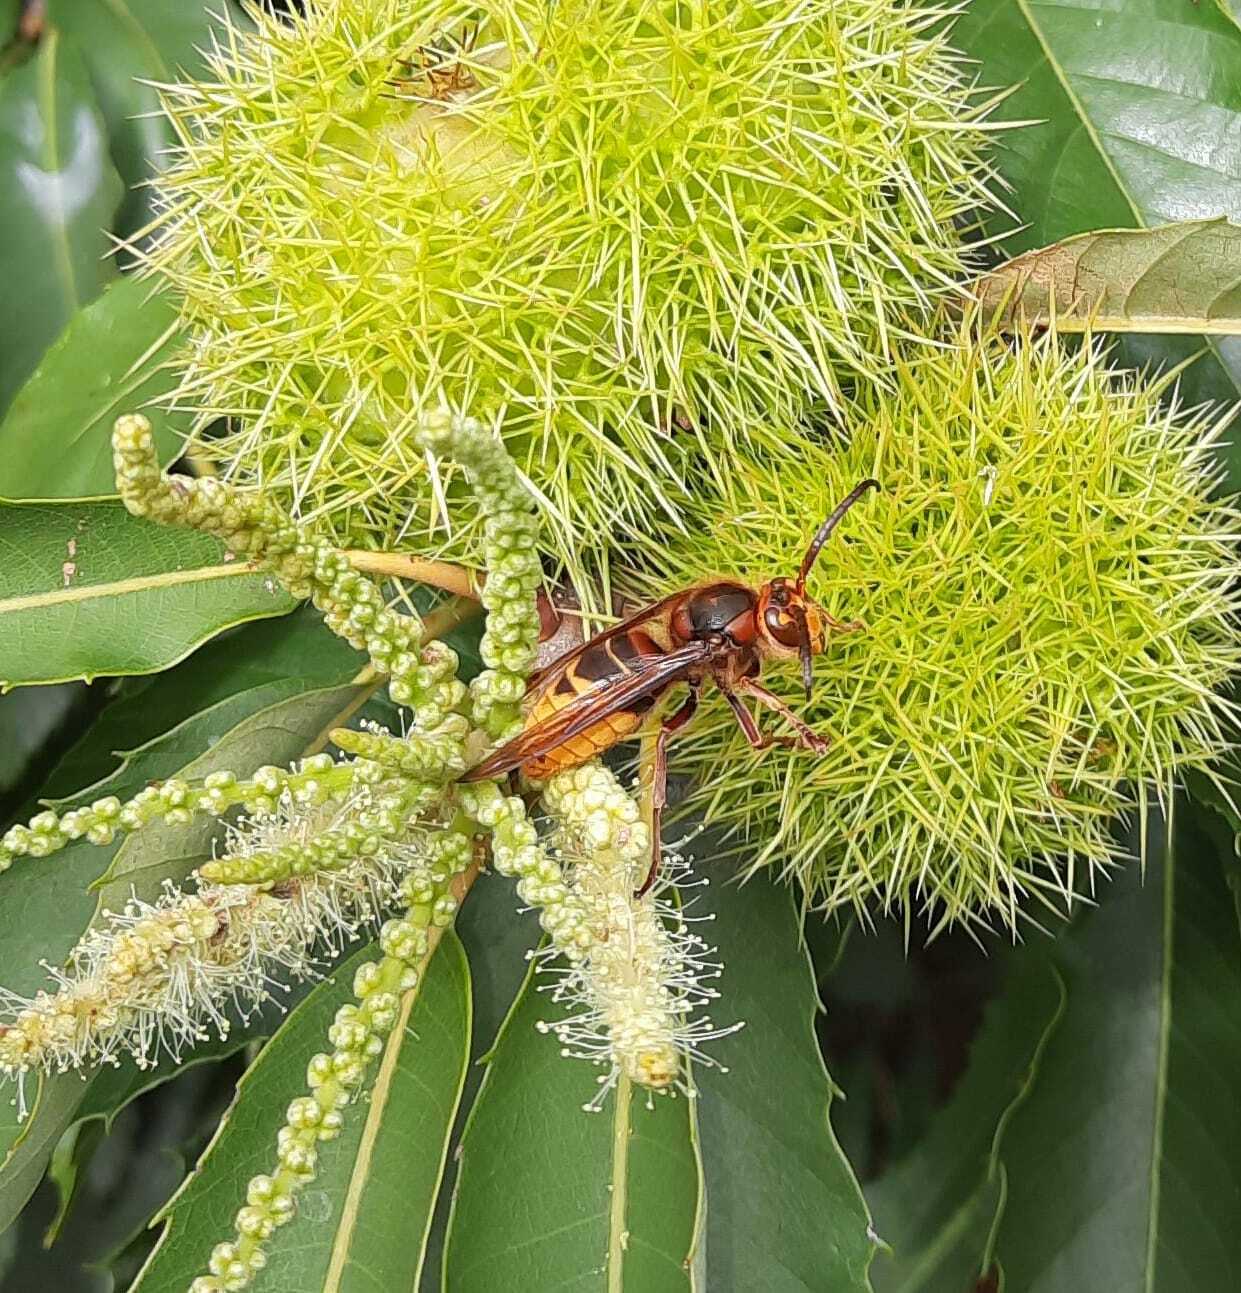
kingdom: Animalia
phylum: Arthropoda
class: Insecta
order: Hymenoptera
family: Vespidae
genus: Vespa
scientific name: Vespa crabro
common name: Hornet
